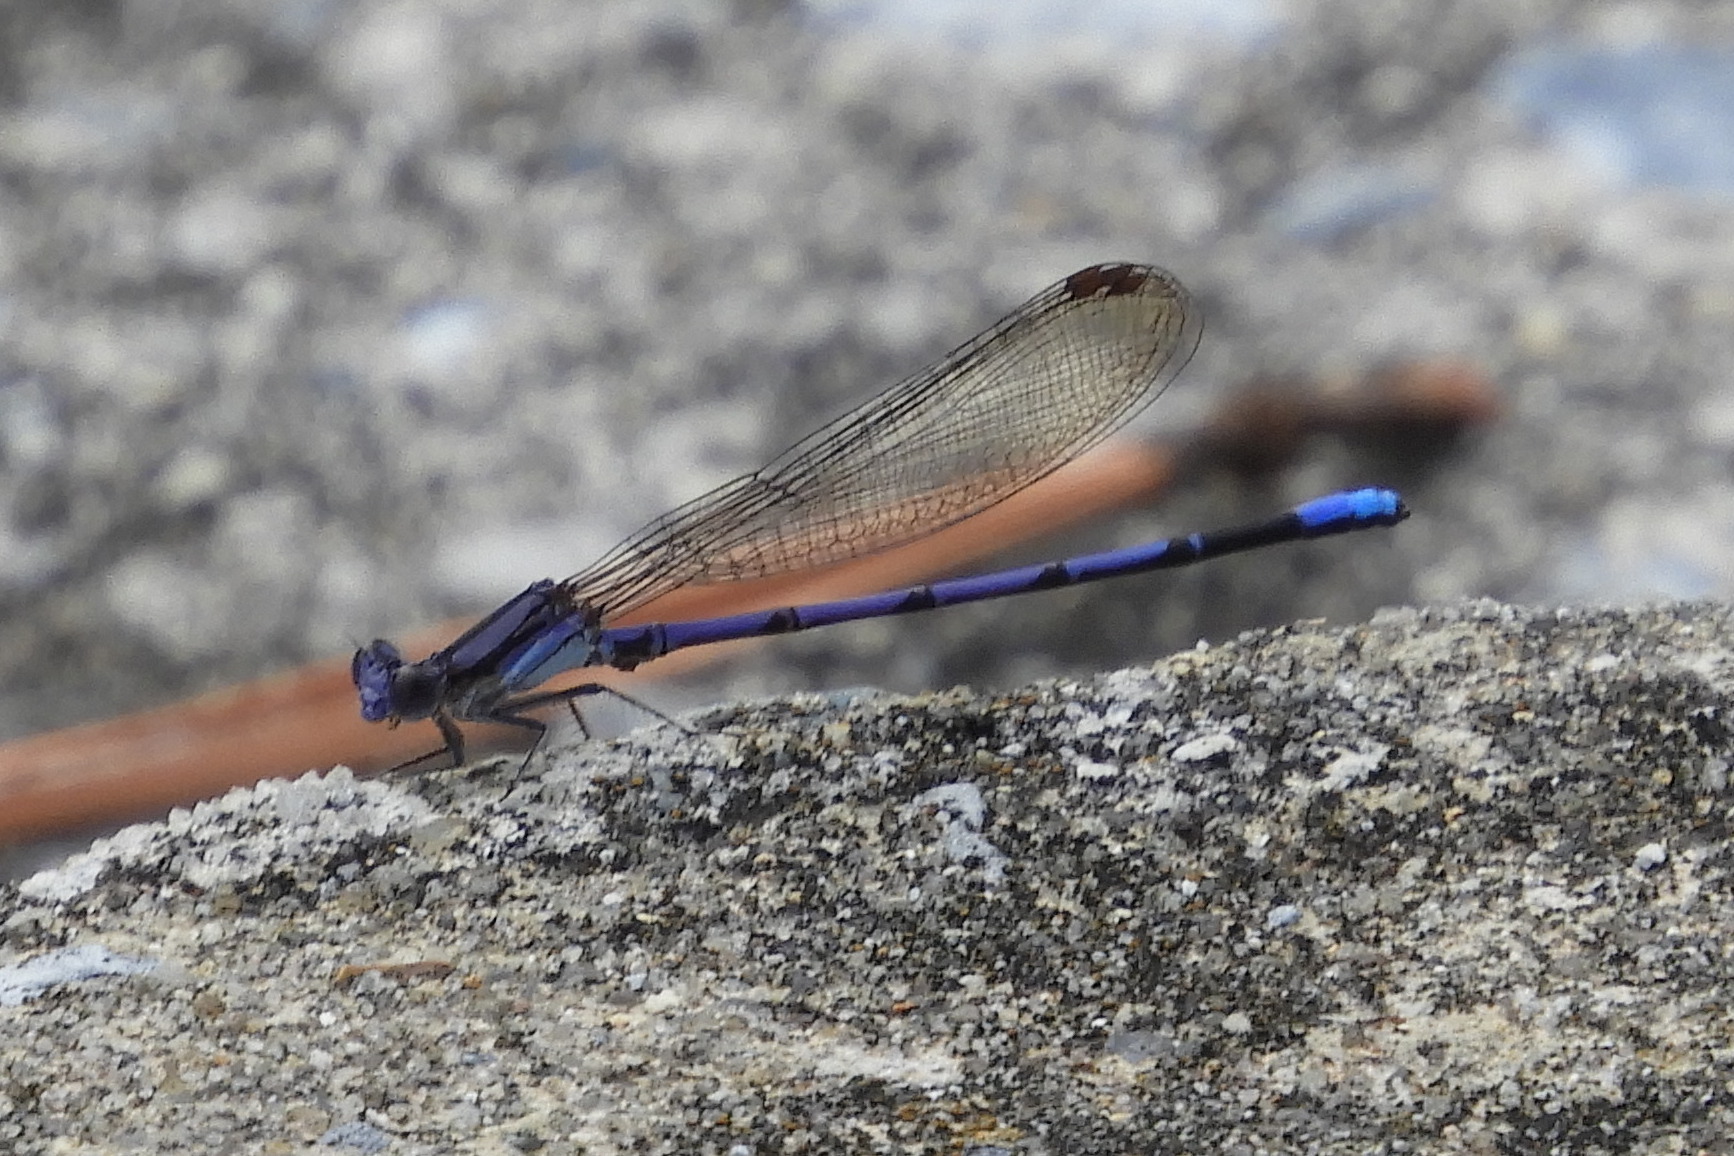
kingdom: Animalia
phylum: Arthropoda
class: Insecta
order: Odonata
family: Coenagrionidae
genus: Argia
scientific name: Argia fumipennis
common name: Variable dancer
